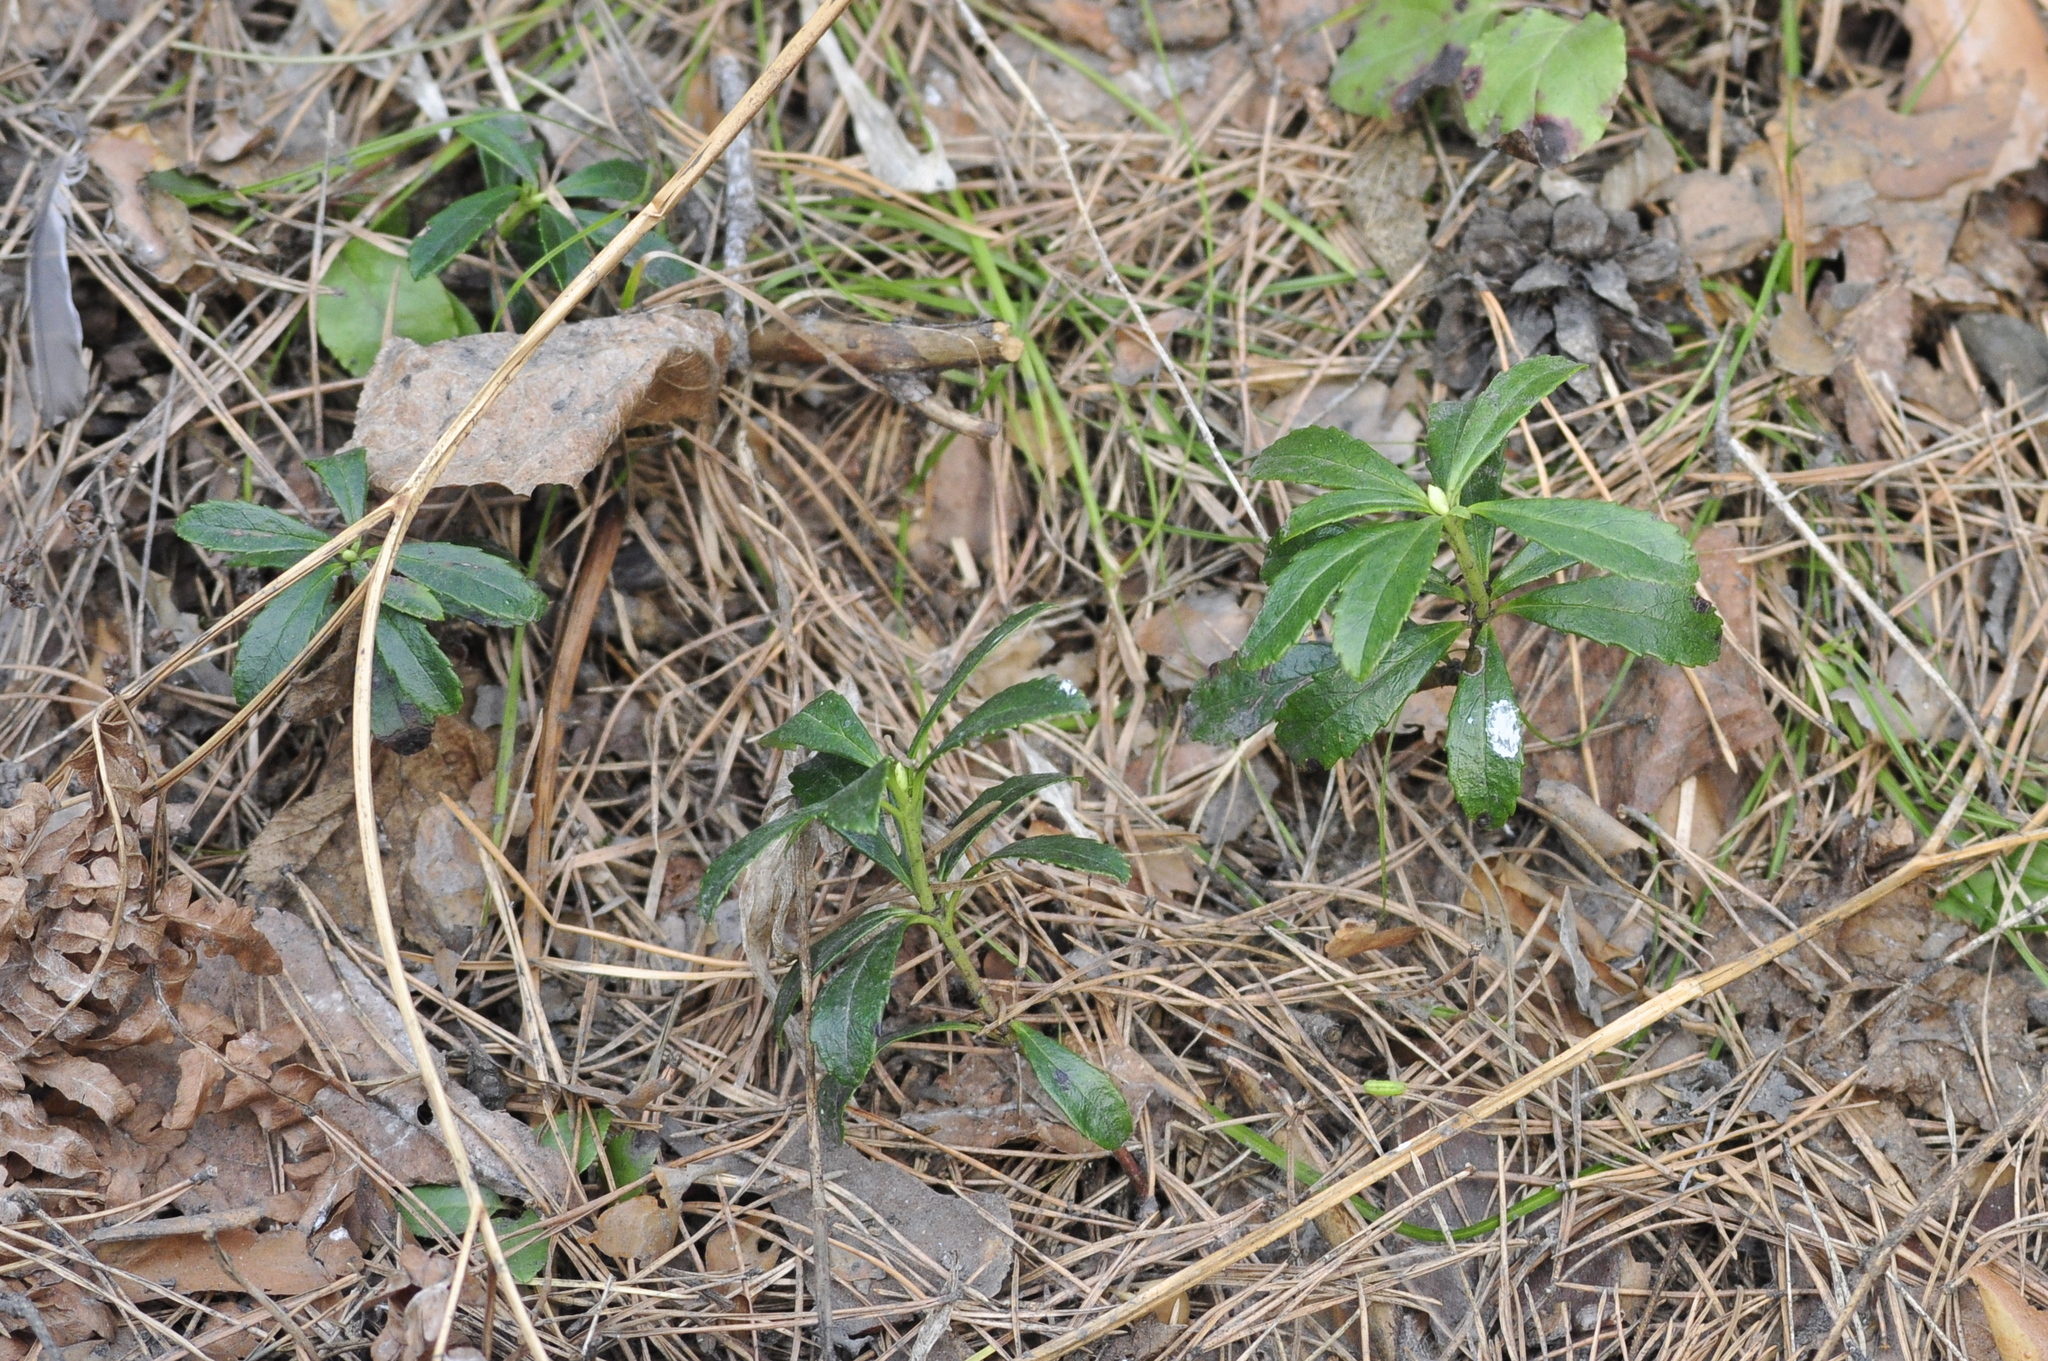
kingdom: Plantae
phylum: Tracheophyta
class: Magnoliopsida
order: Ericales
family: Ericaceae
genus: Chimaphila
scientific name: Chimaphila umbellata
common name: Pipsissewa
